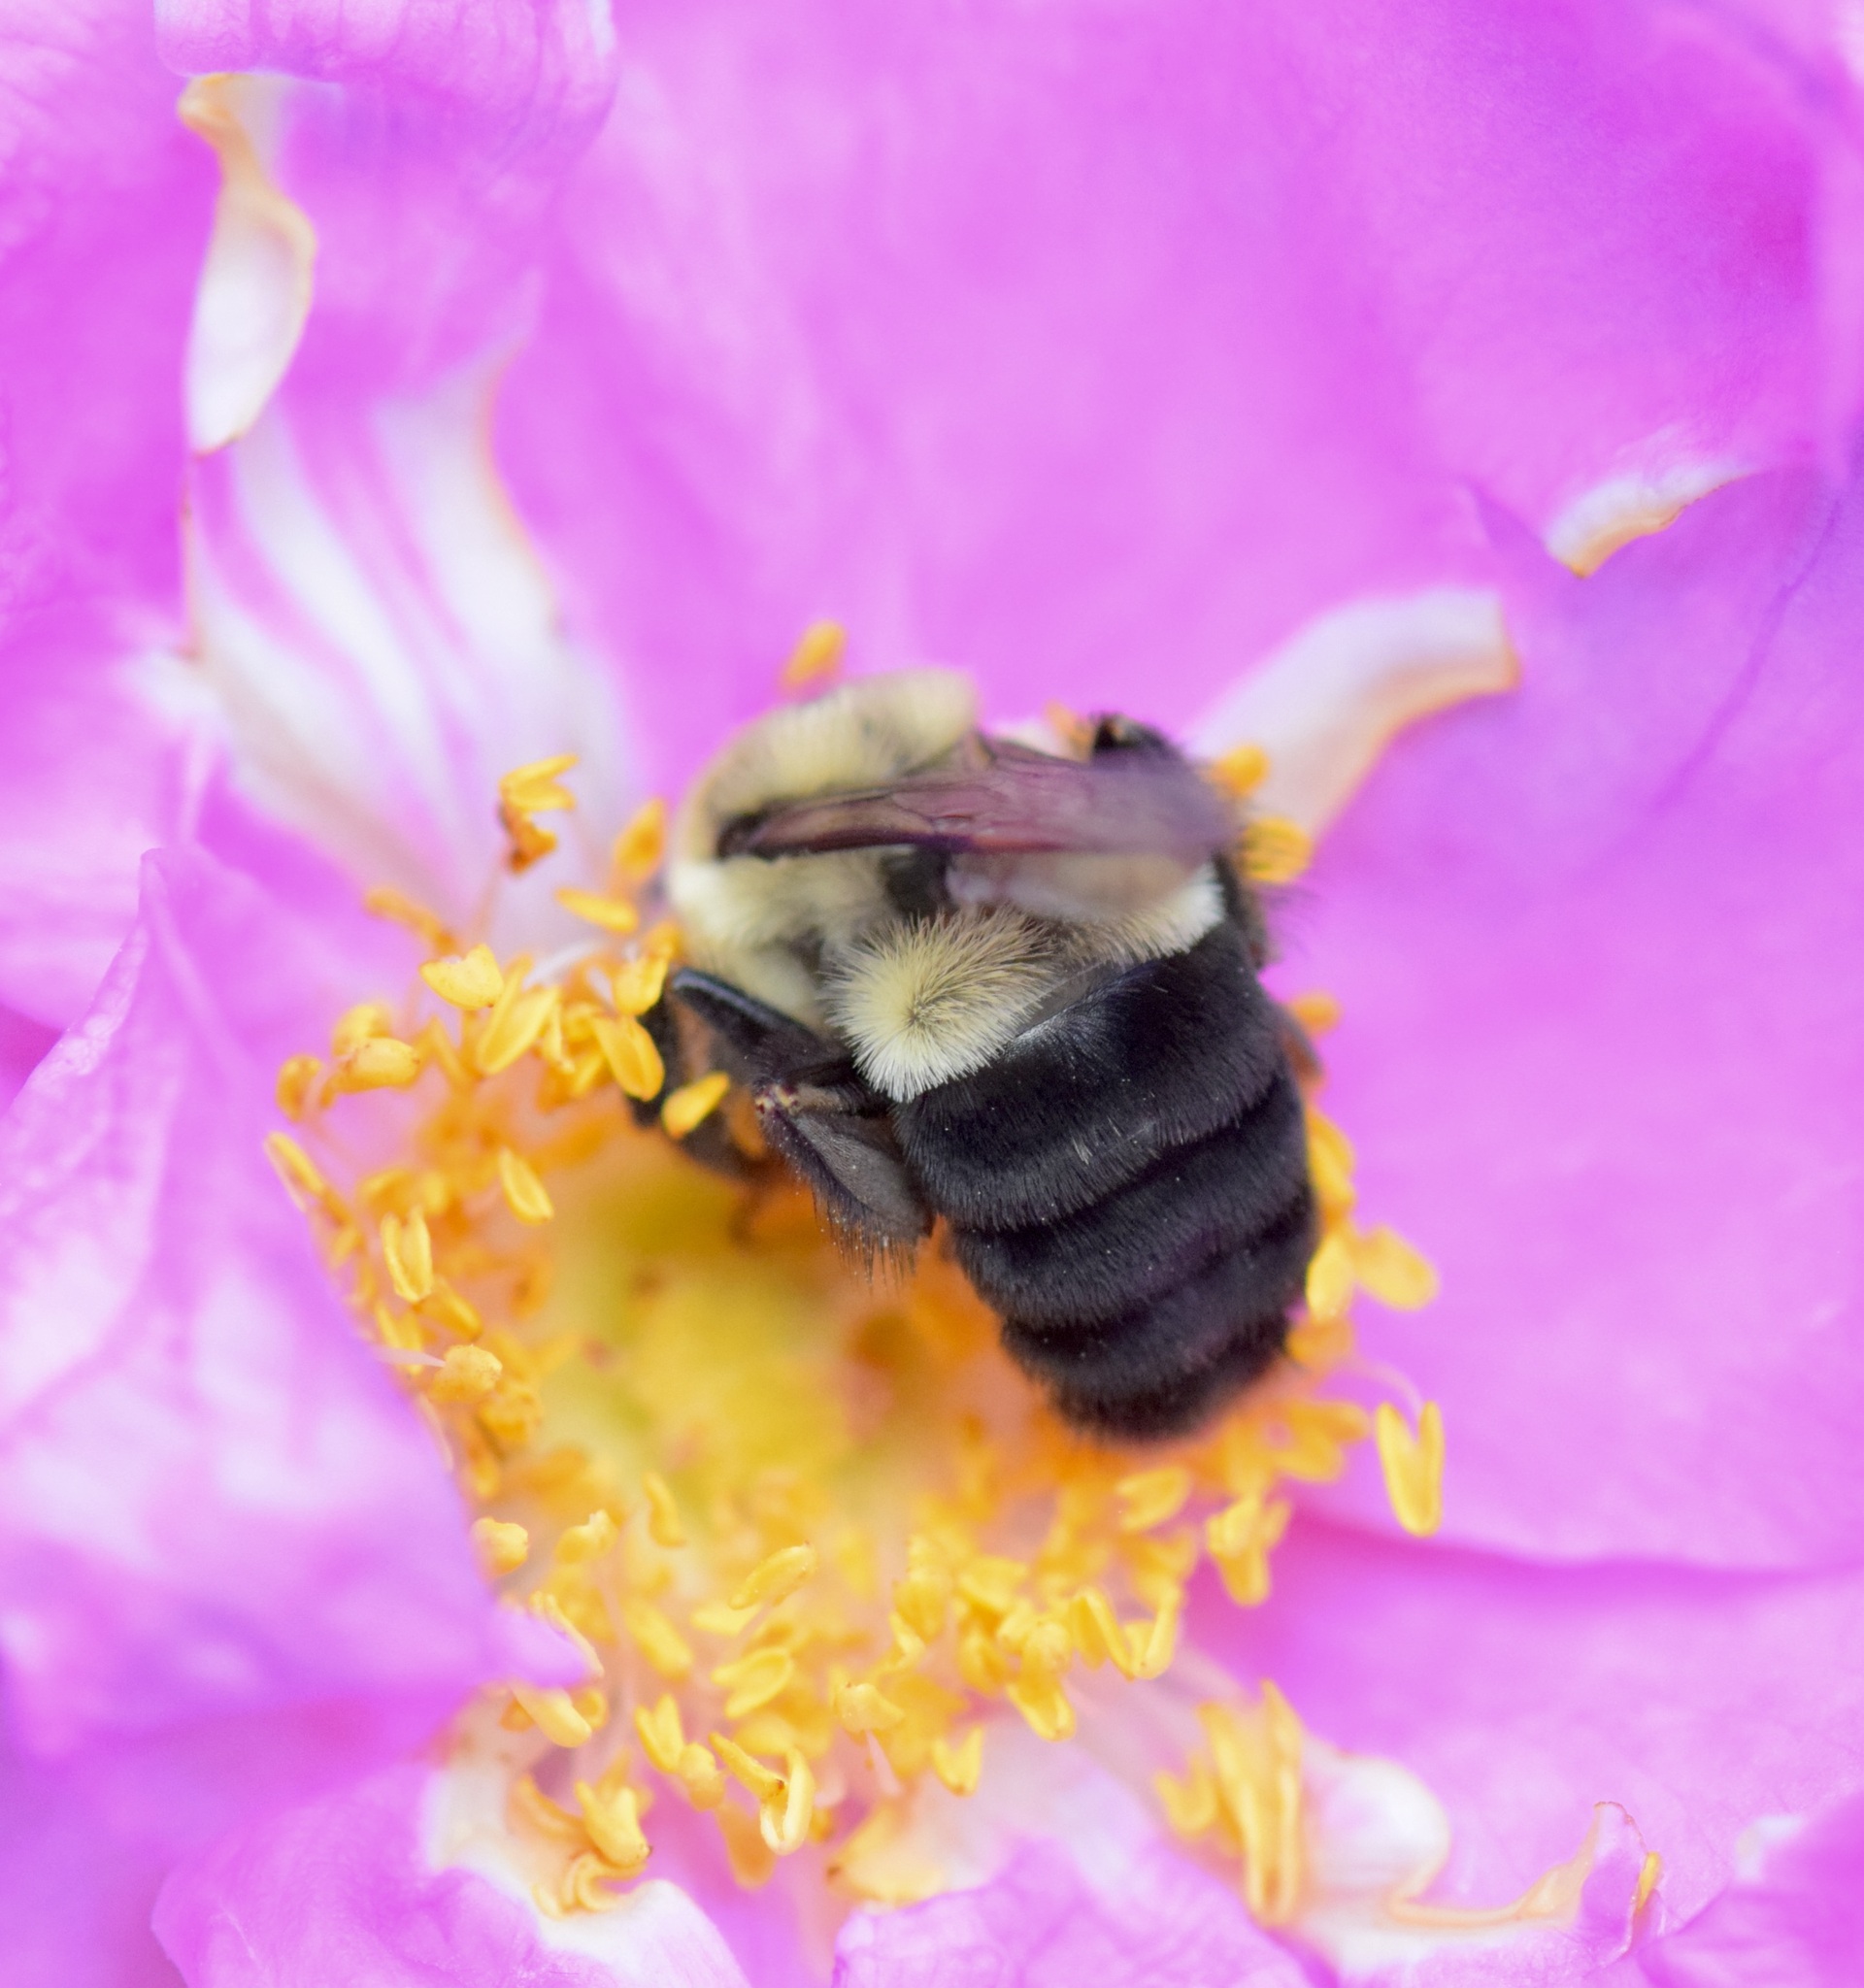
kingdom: Animalia
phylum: Arthropoda
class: Insecta
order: Hymenoptera
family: Apidae
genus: Bombus
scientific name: Bombus impatiens
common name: Common eastern bumble bee
